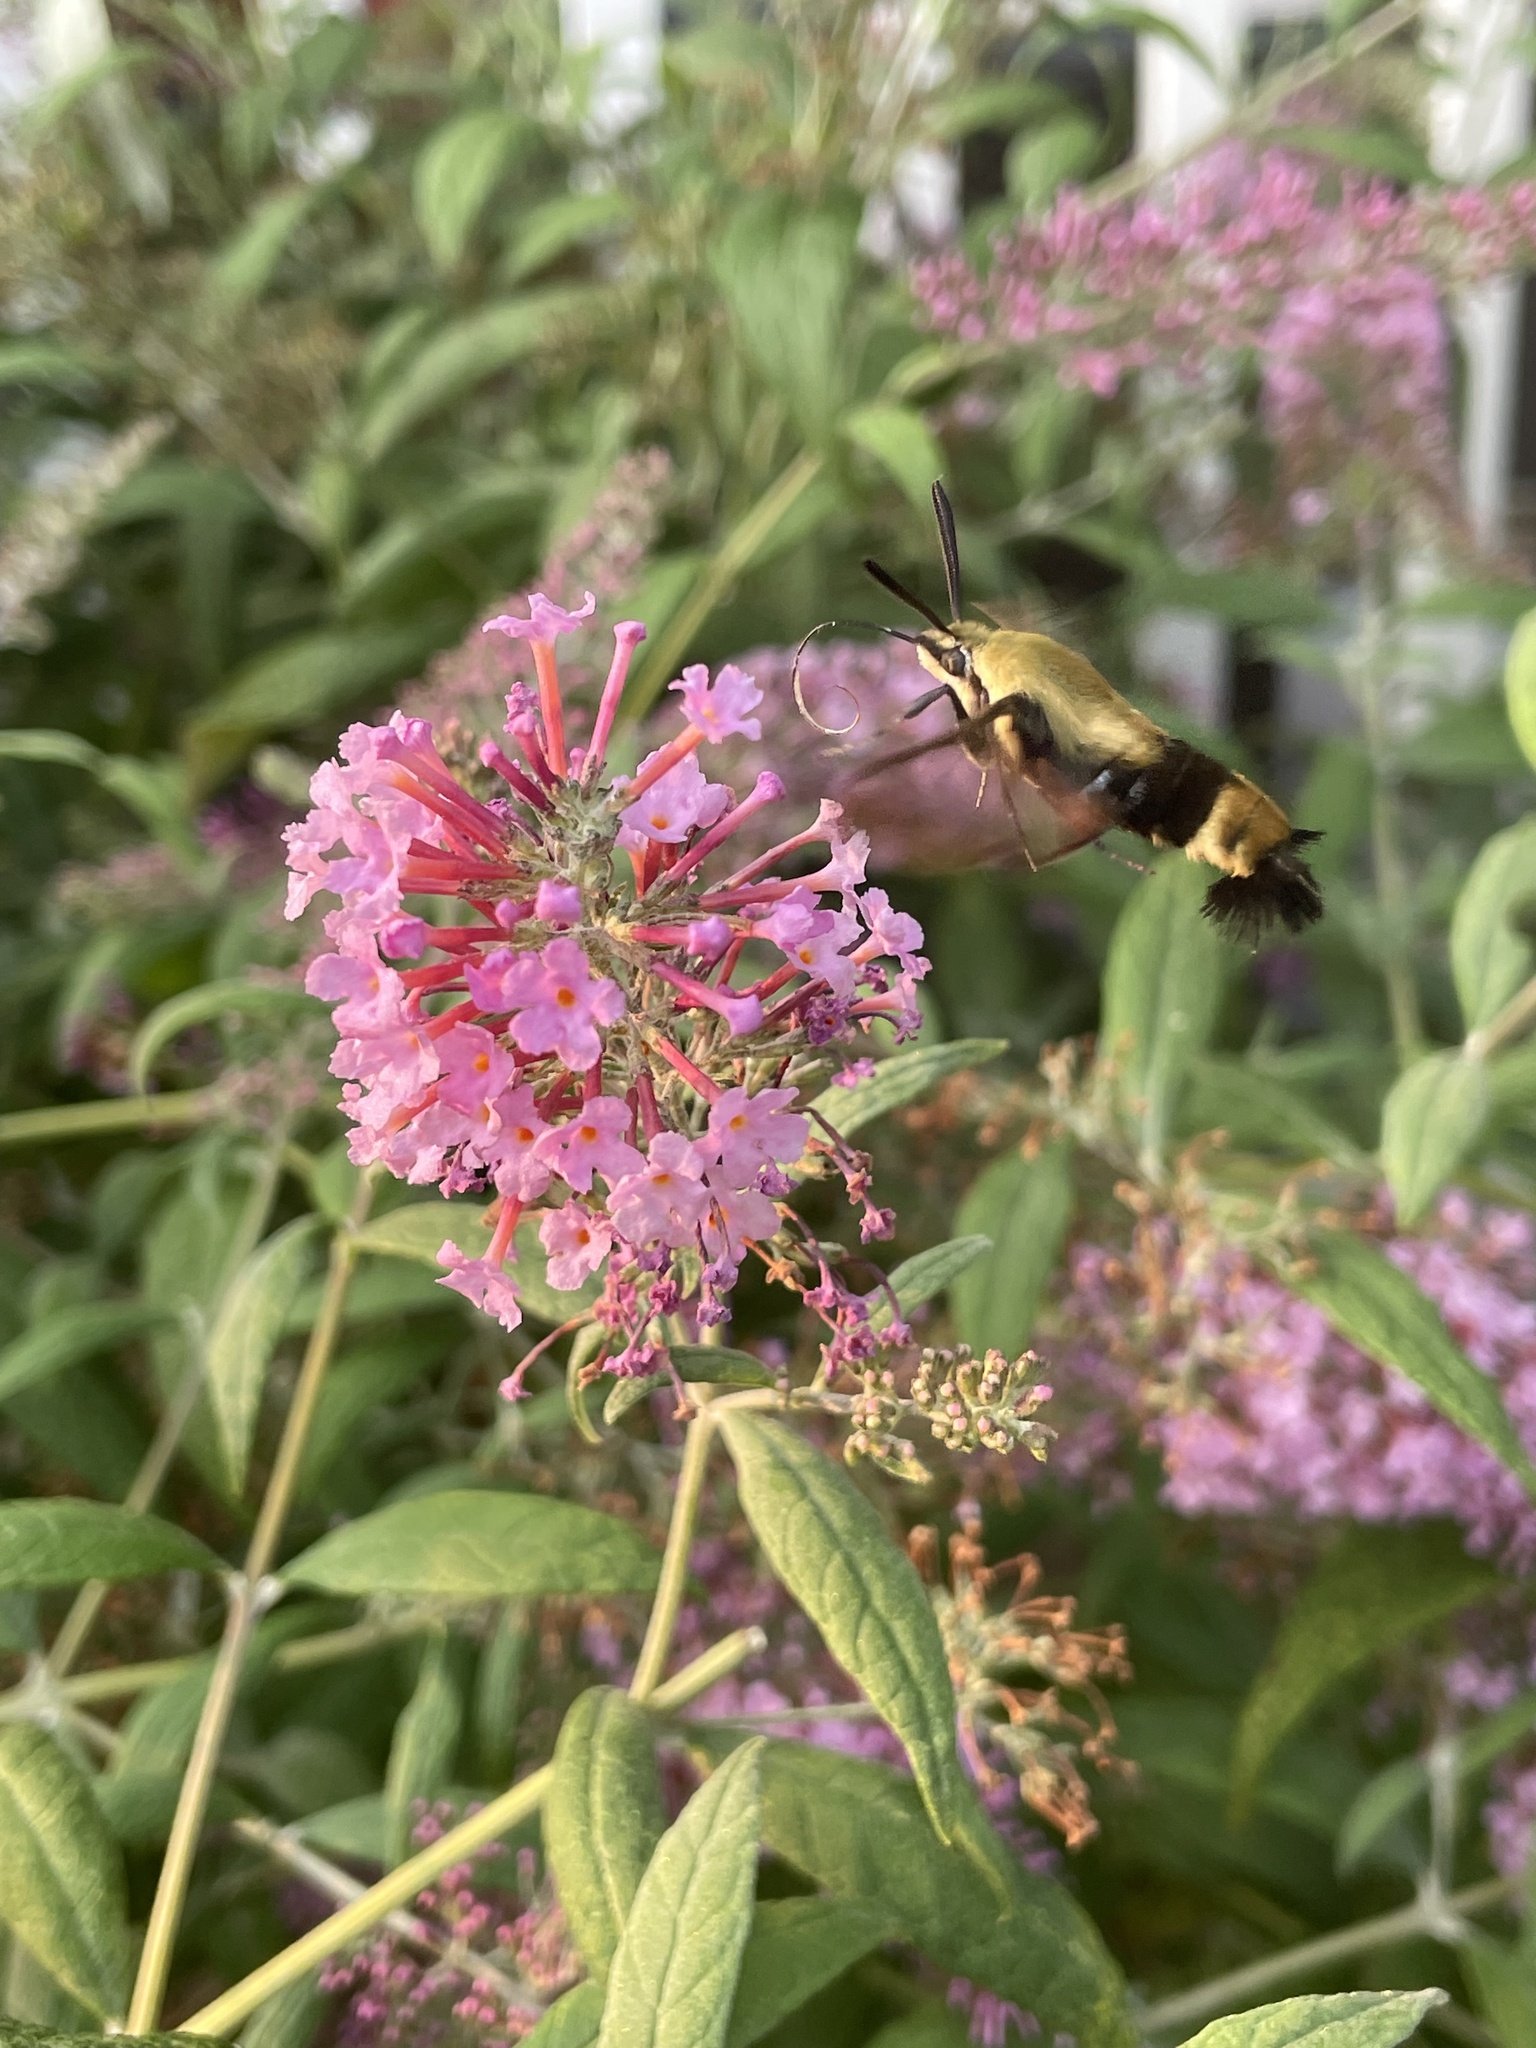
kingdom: Animalia
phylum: Arthropoda
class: Insecta
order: Lepidoptera
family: Sphingidae
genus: Hemaris
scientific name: Hemaris diffinis
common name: Bumblebee moth
